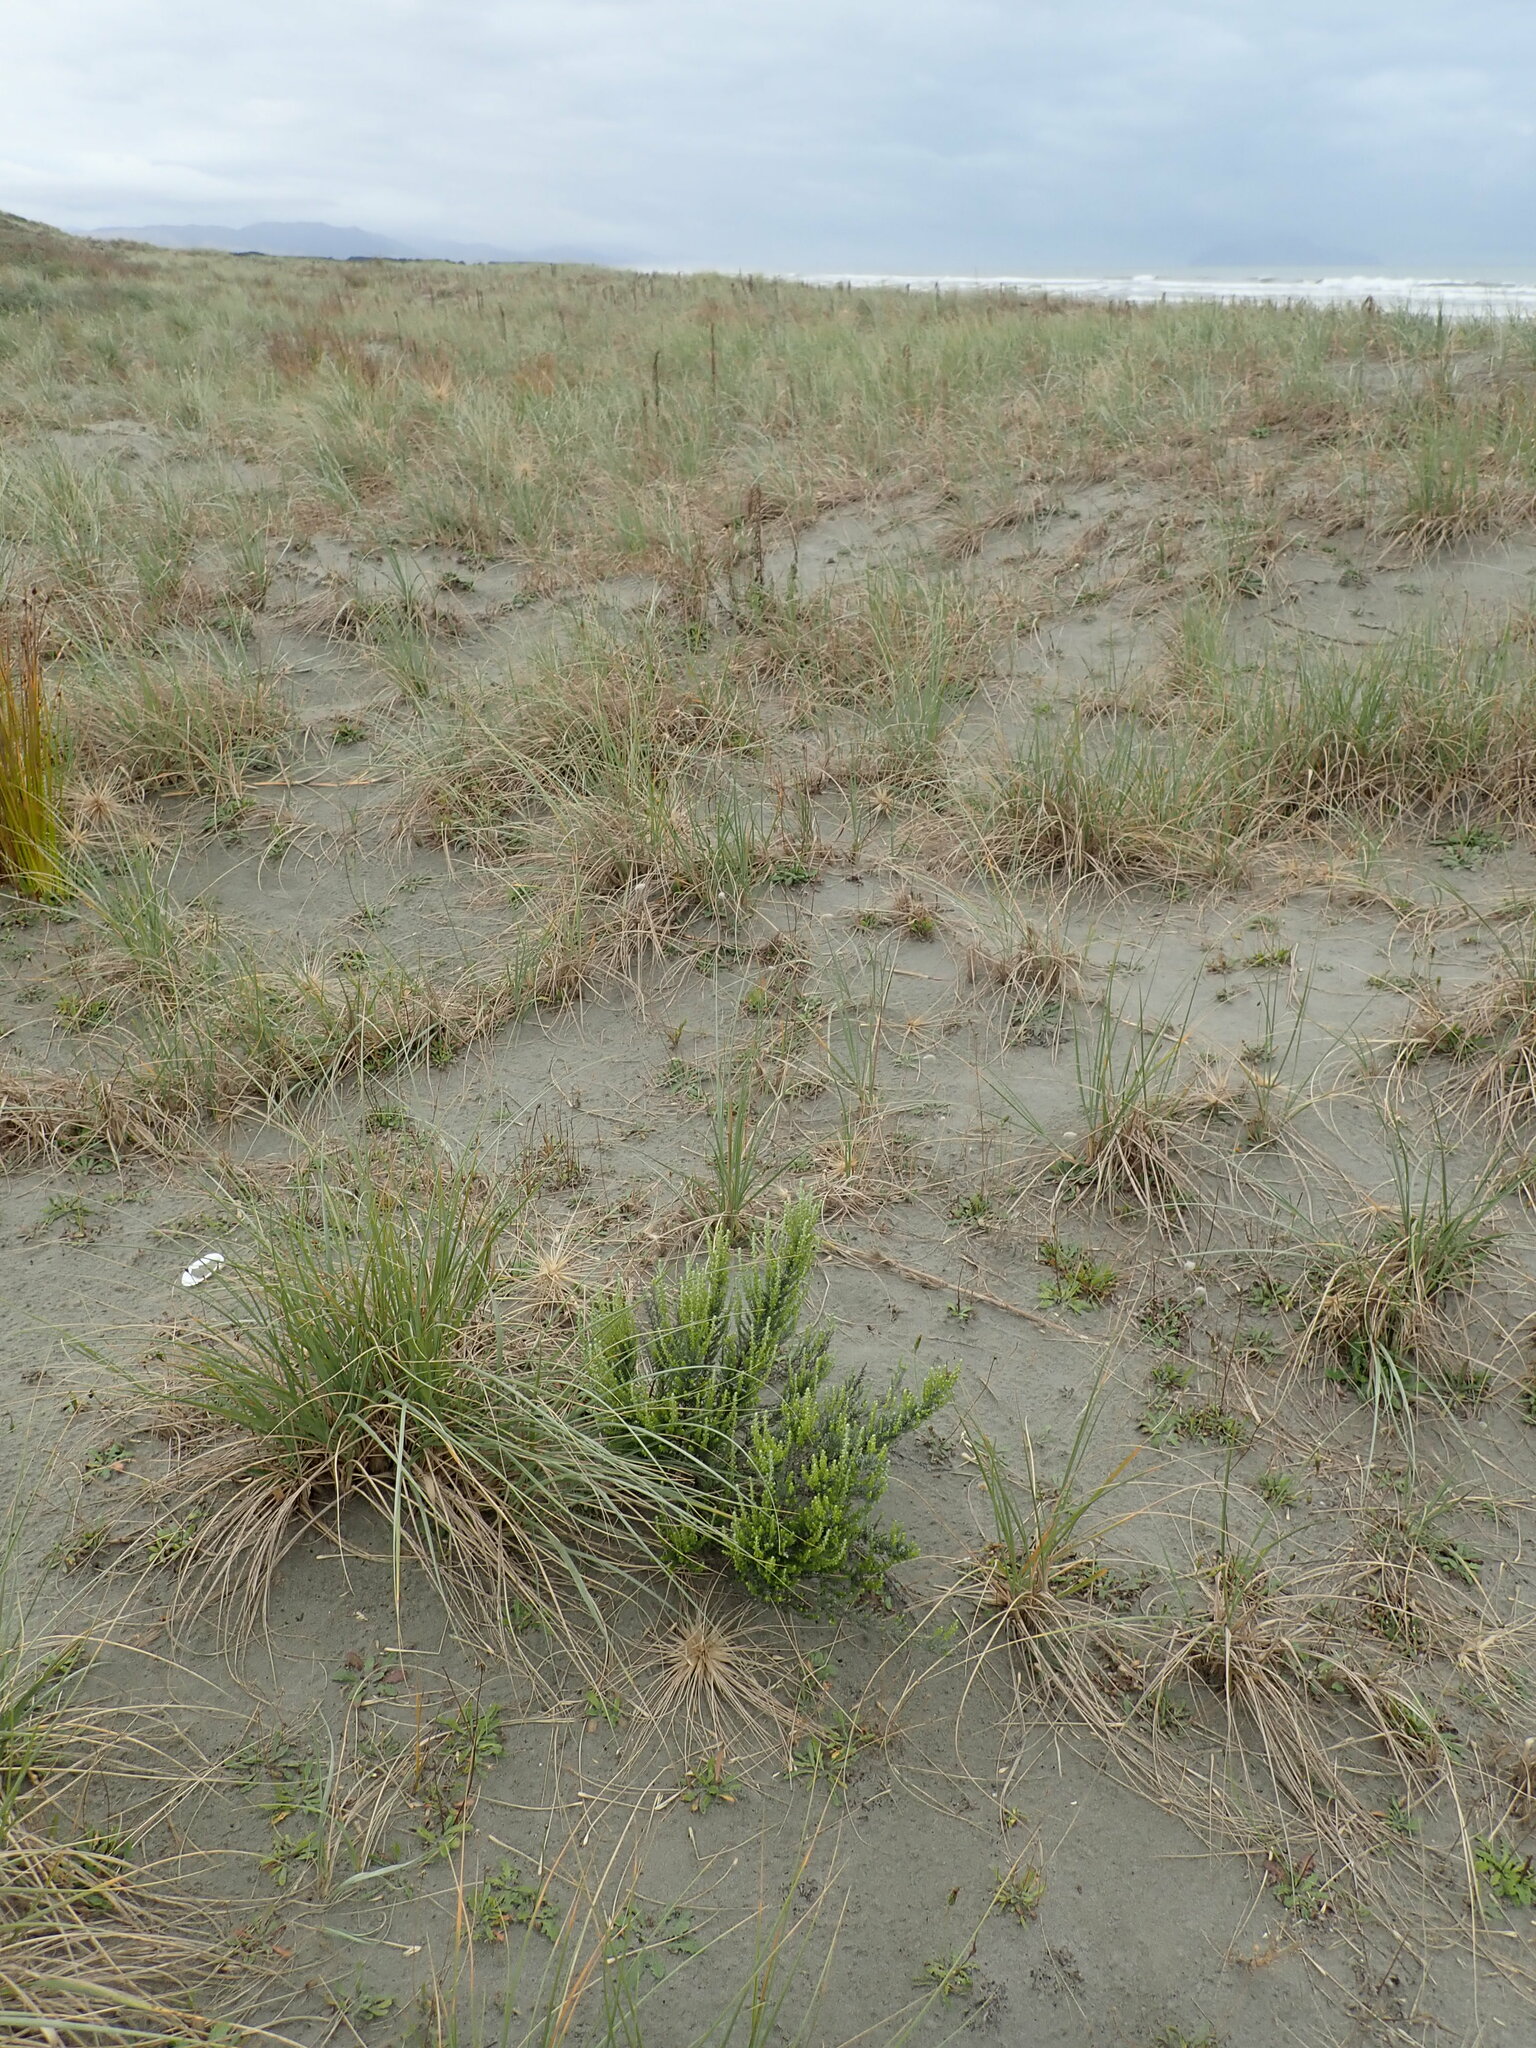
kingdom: Plantae
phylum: Tracheophyta
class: Magnoliopsida
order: Asterales
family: Asteraceae
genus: Ozothamnus
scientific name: Ozothamnus leptophyllus
